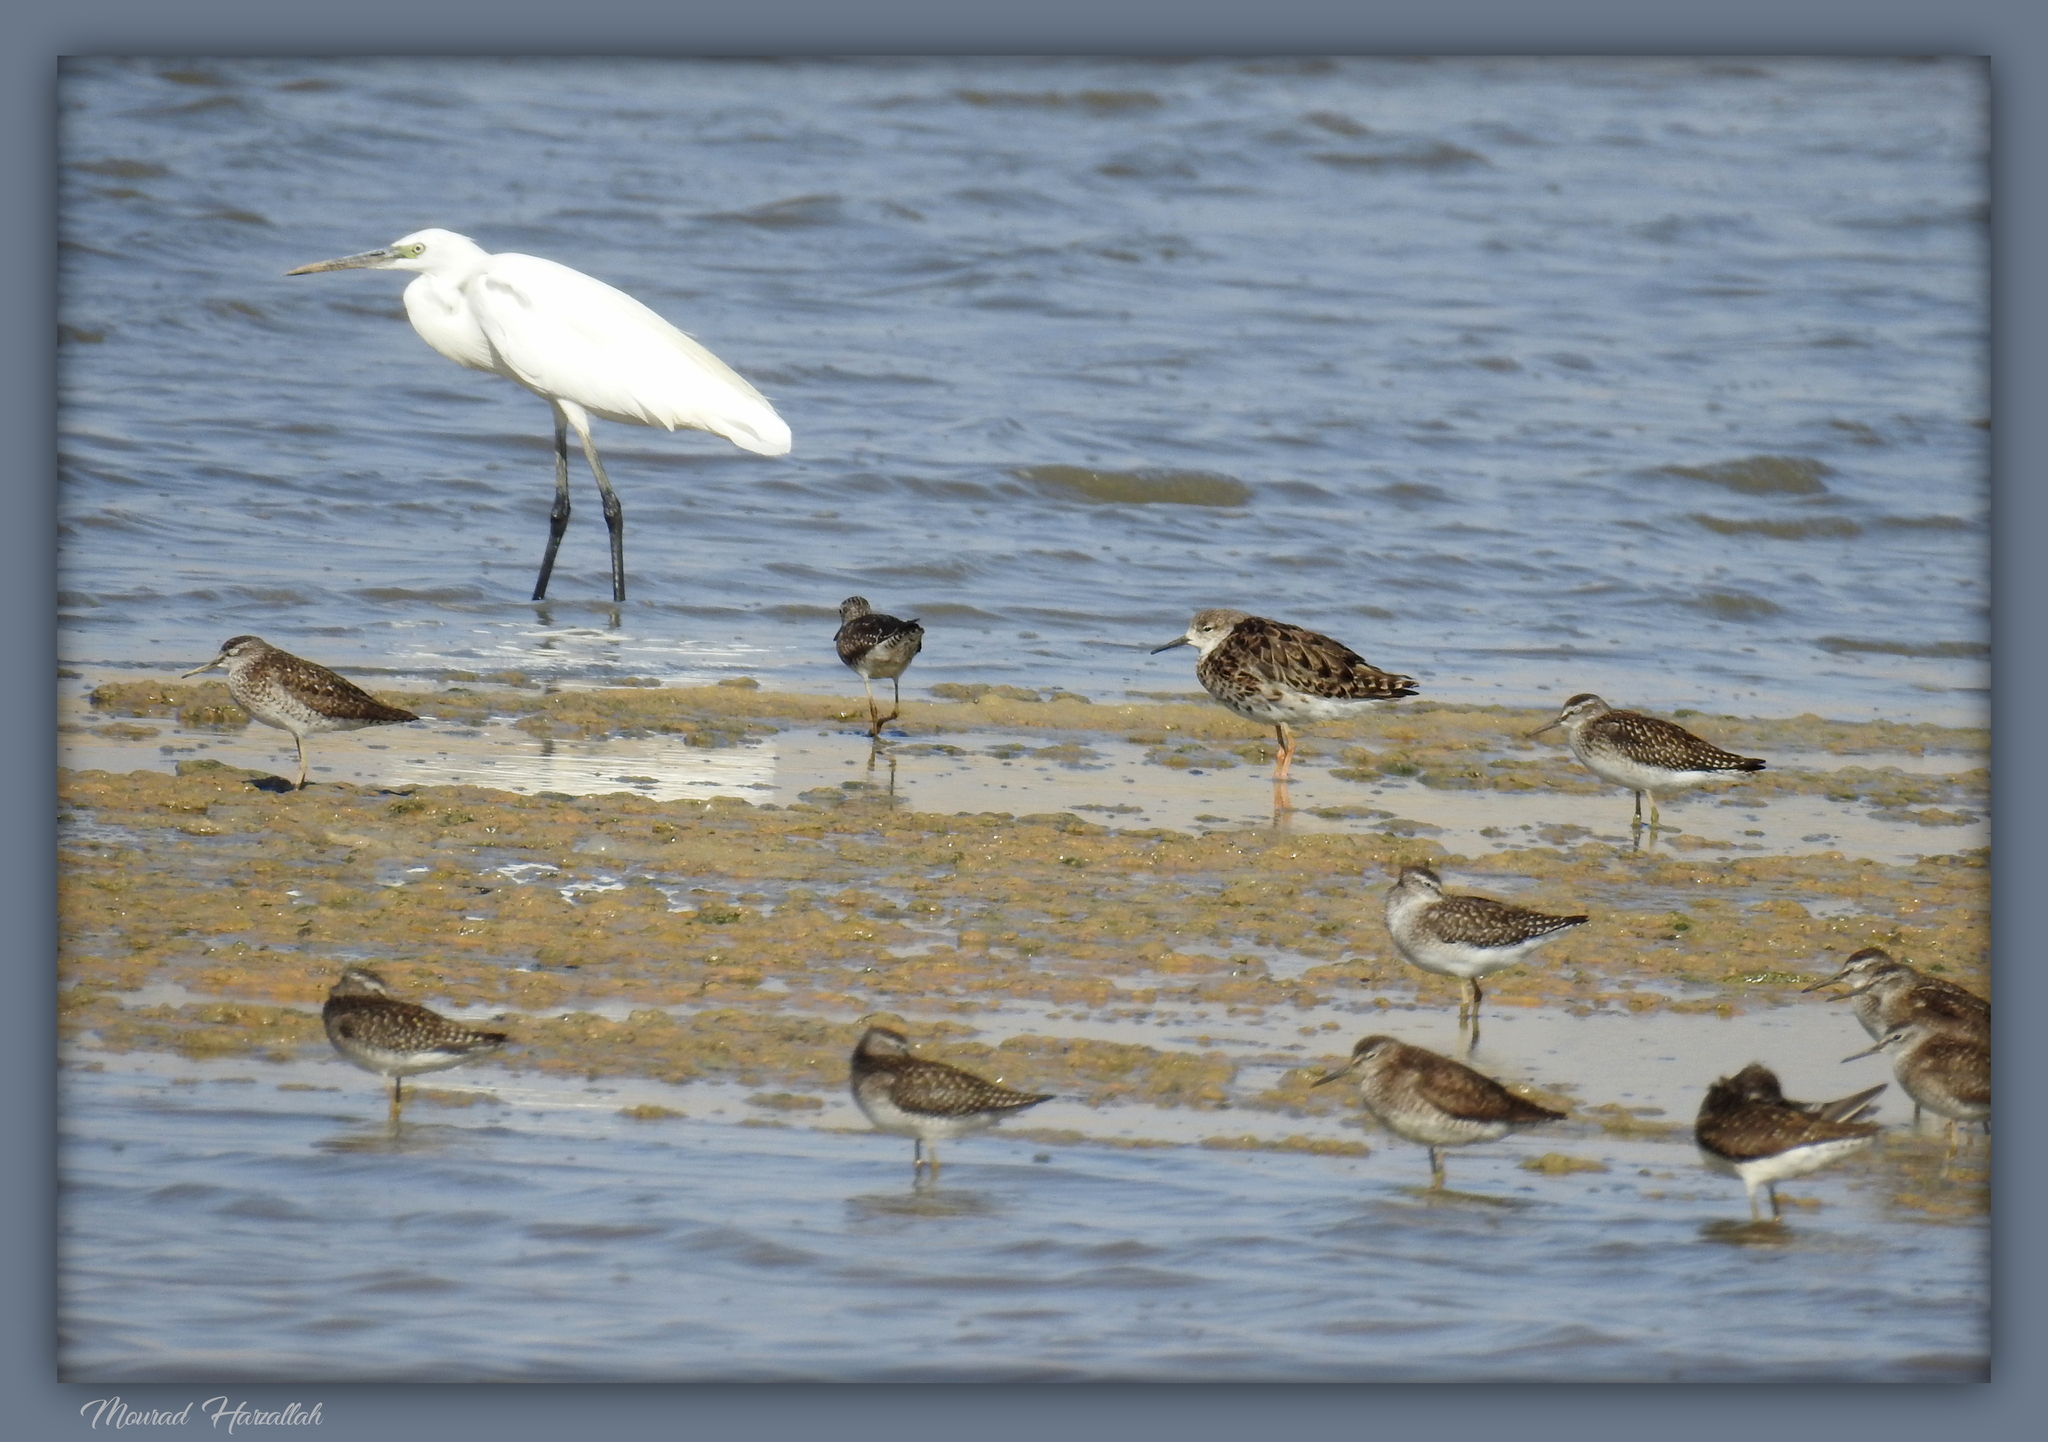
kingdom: Animalia
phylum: Chordata
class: Aves
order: Charadriiformes
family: Scolopacidae
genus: Calidris
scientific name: Calidris pugnax
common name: Ruff
